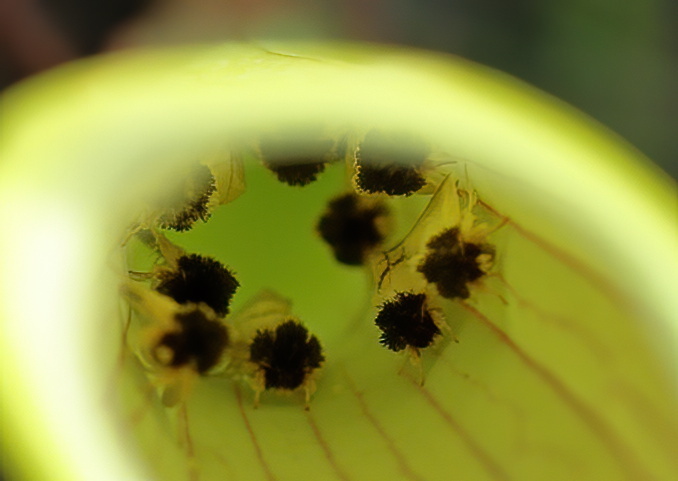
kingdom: Animalia
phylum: Arthropoda
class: Insecta
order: Lepidoptera
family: Noctuidae
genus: Exyra
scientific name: Exyra semicrocea
